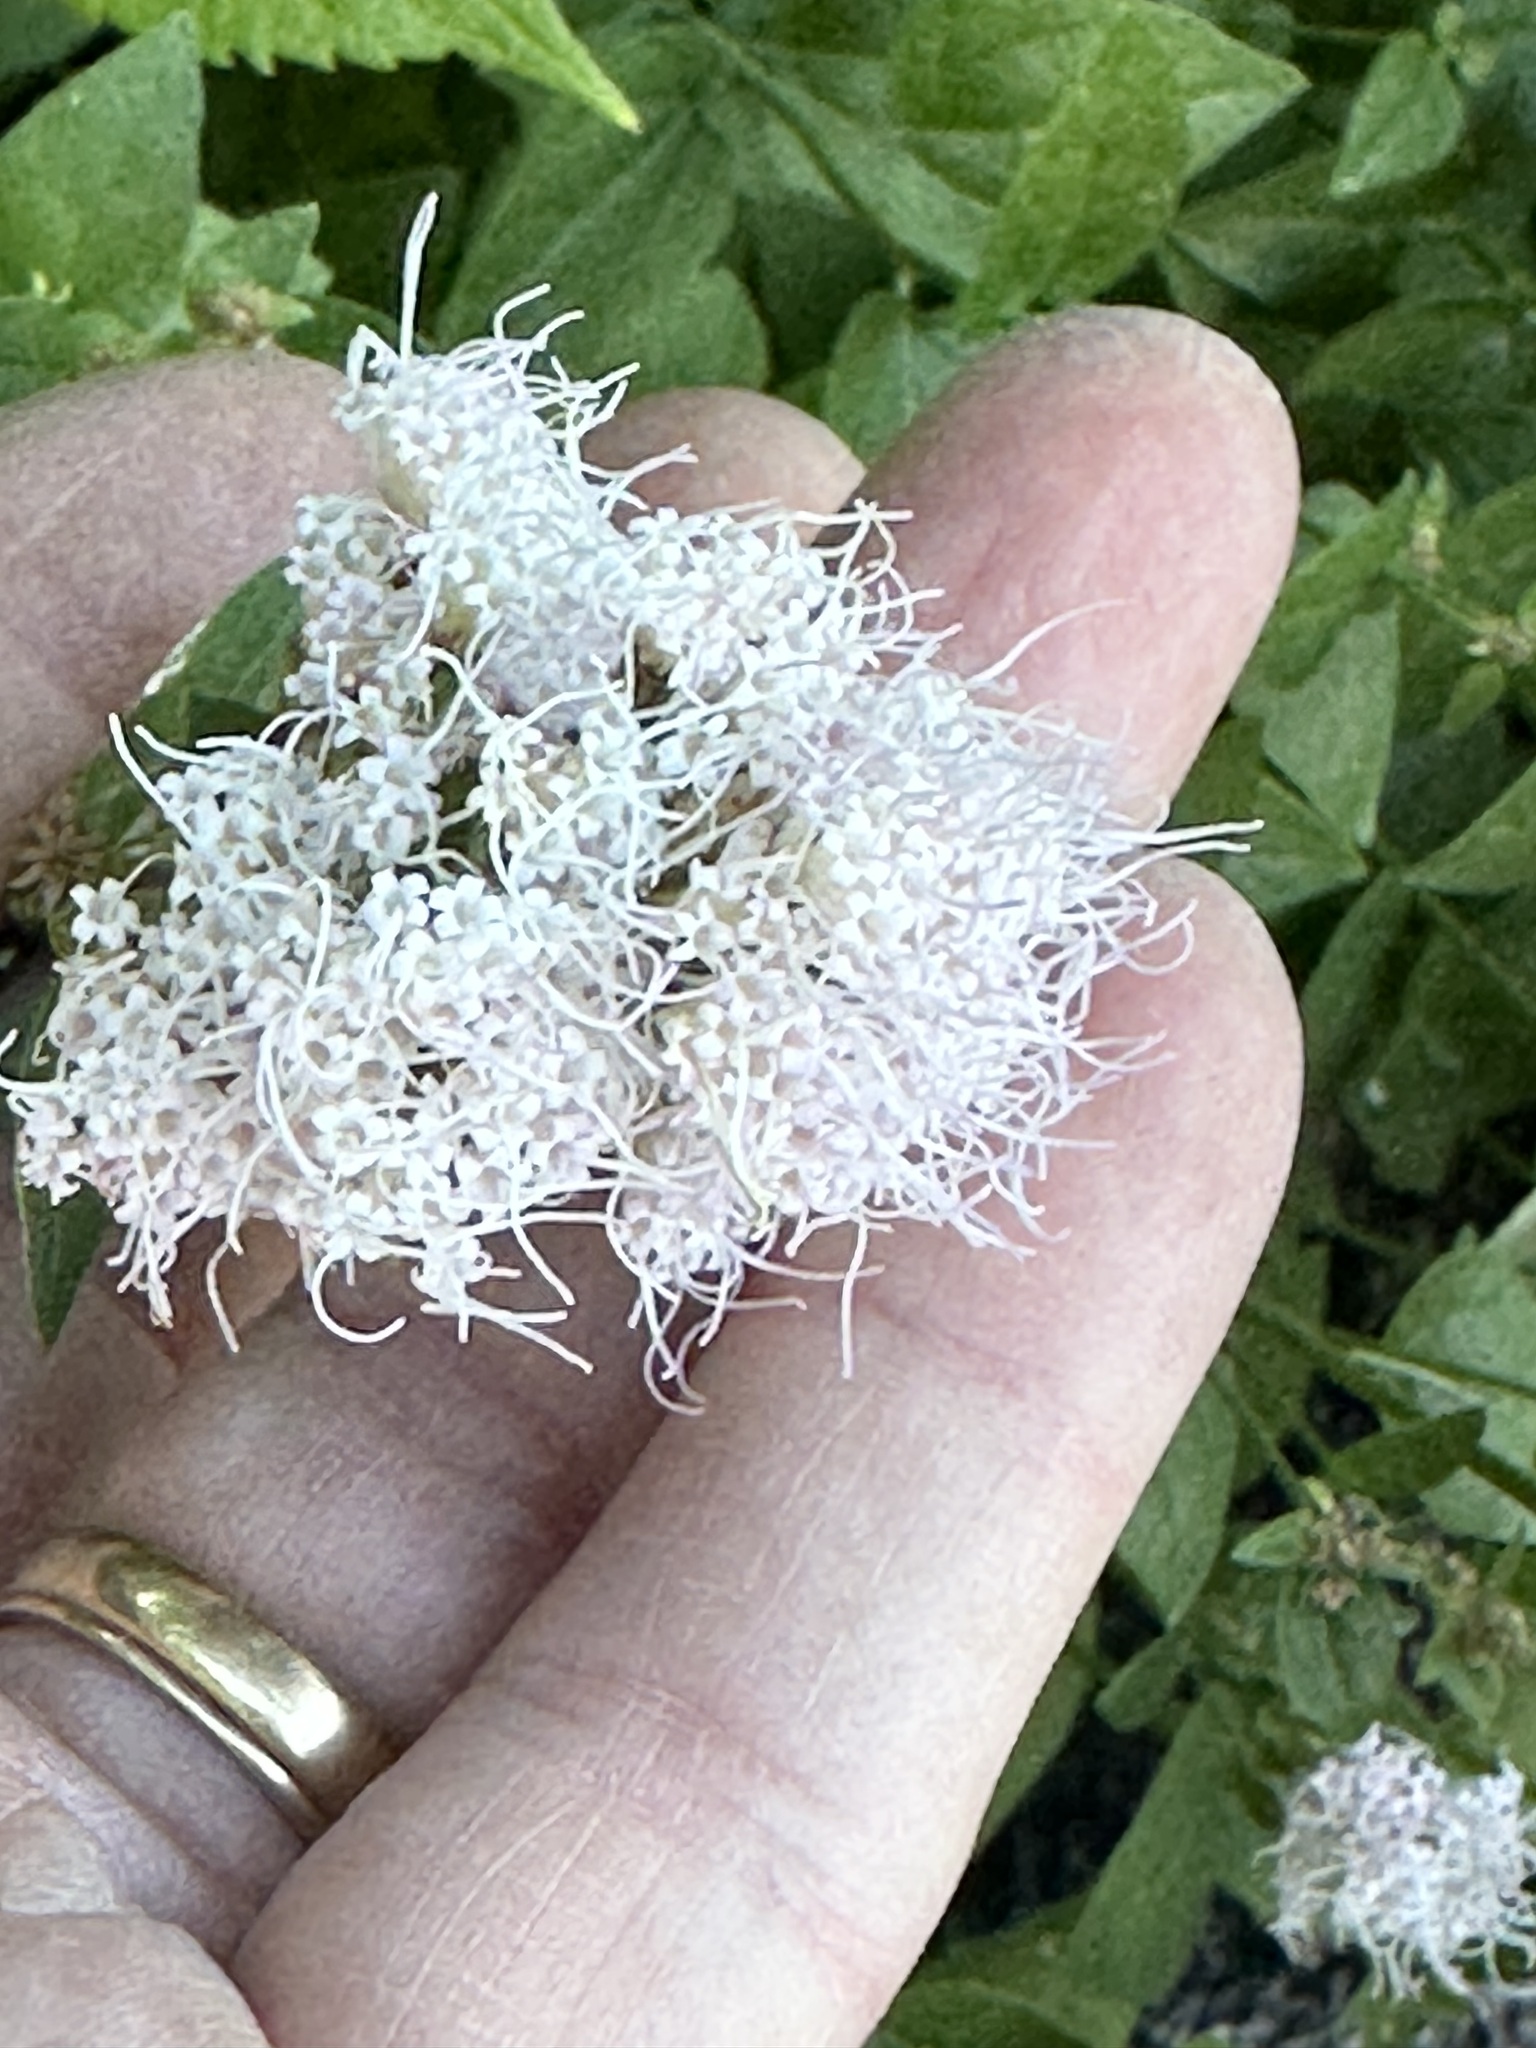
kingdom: Plantae
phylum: Tracheophyta
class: Magnoliopsida
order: Asterales
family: Asteraceae
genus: Ageratina
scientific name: Ageratina occidentalis
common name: Western snakeroot
